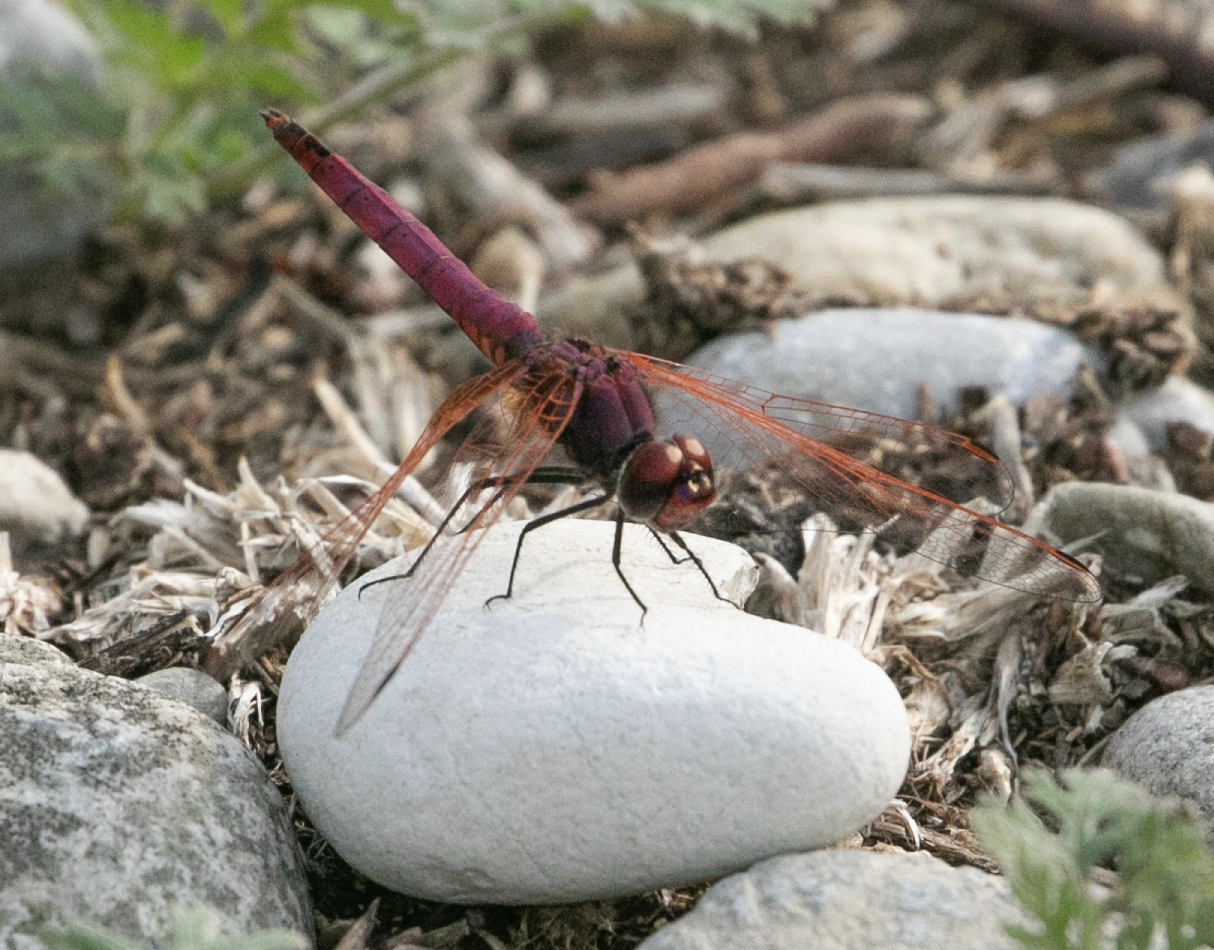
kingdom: Animalia
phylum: Arthropoda
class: Insecta
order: Odonata
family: Libellulidae
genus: Trithemis
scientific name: Trithemis annulata
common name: Violet dropwing
